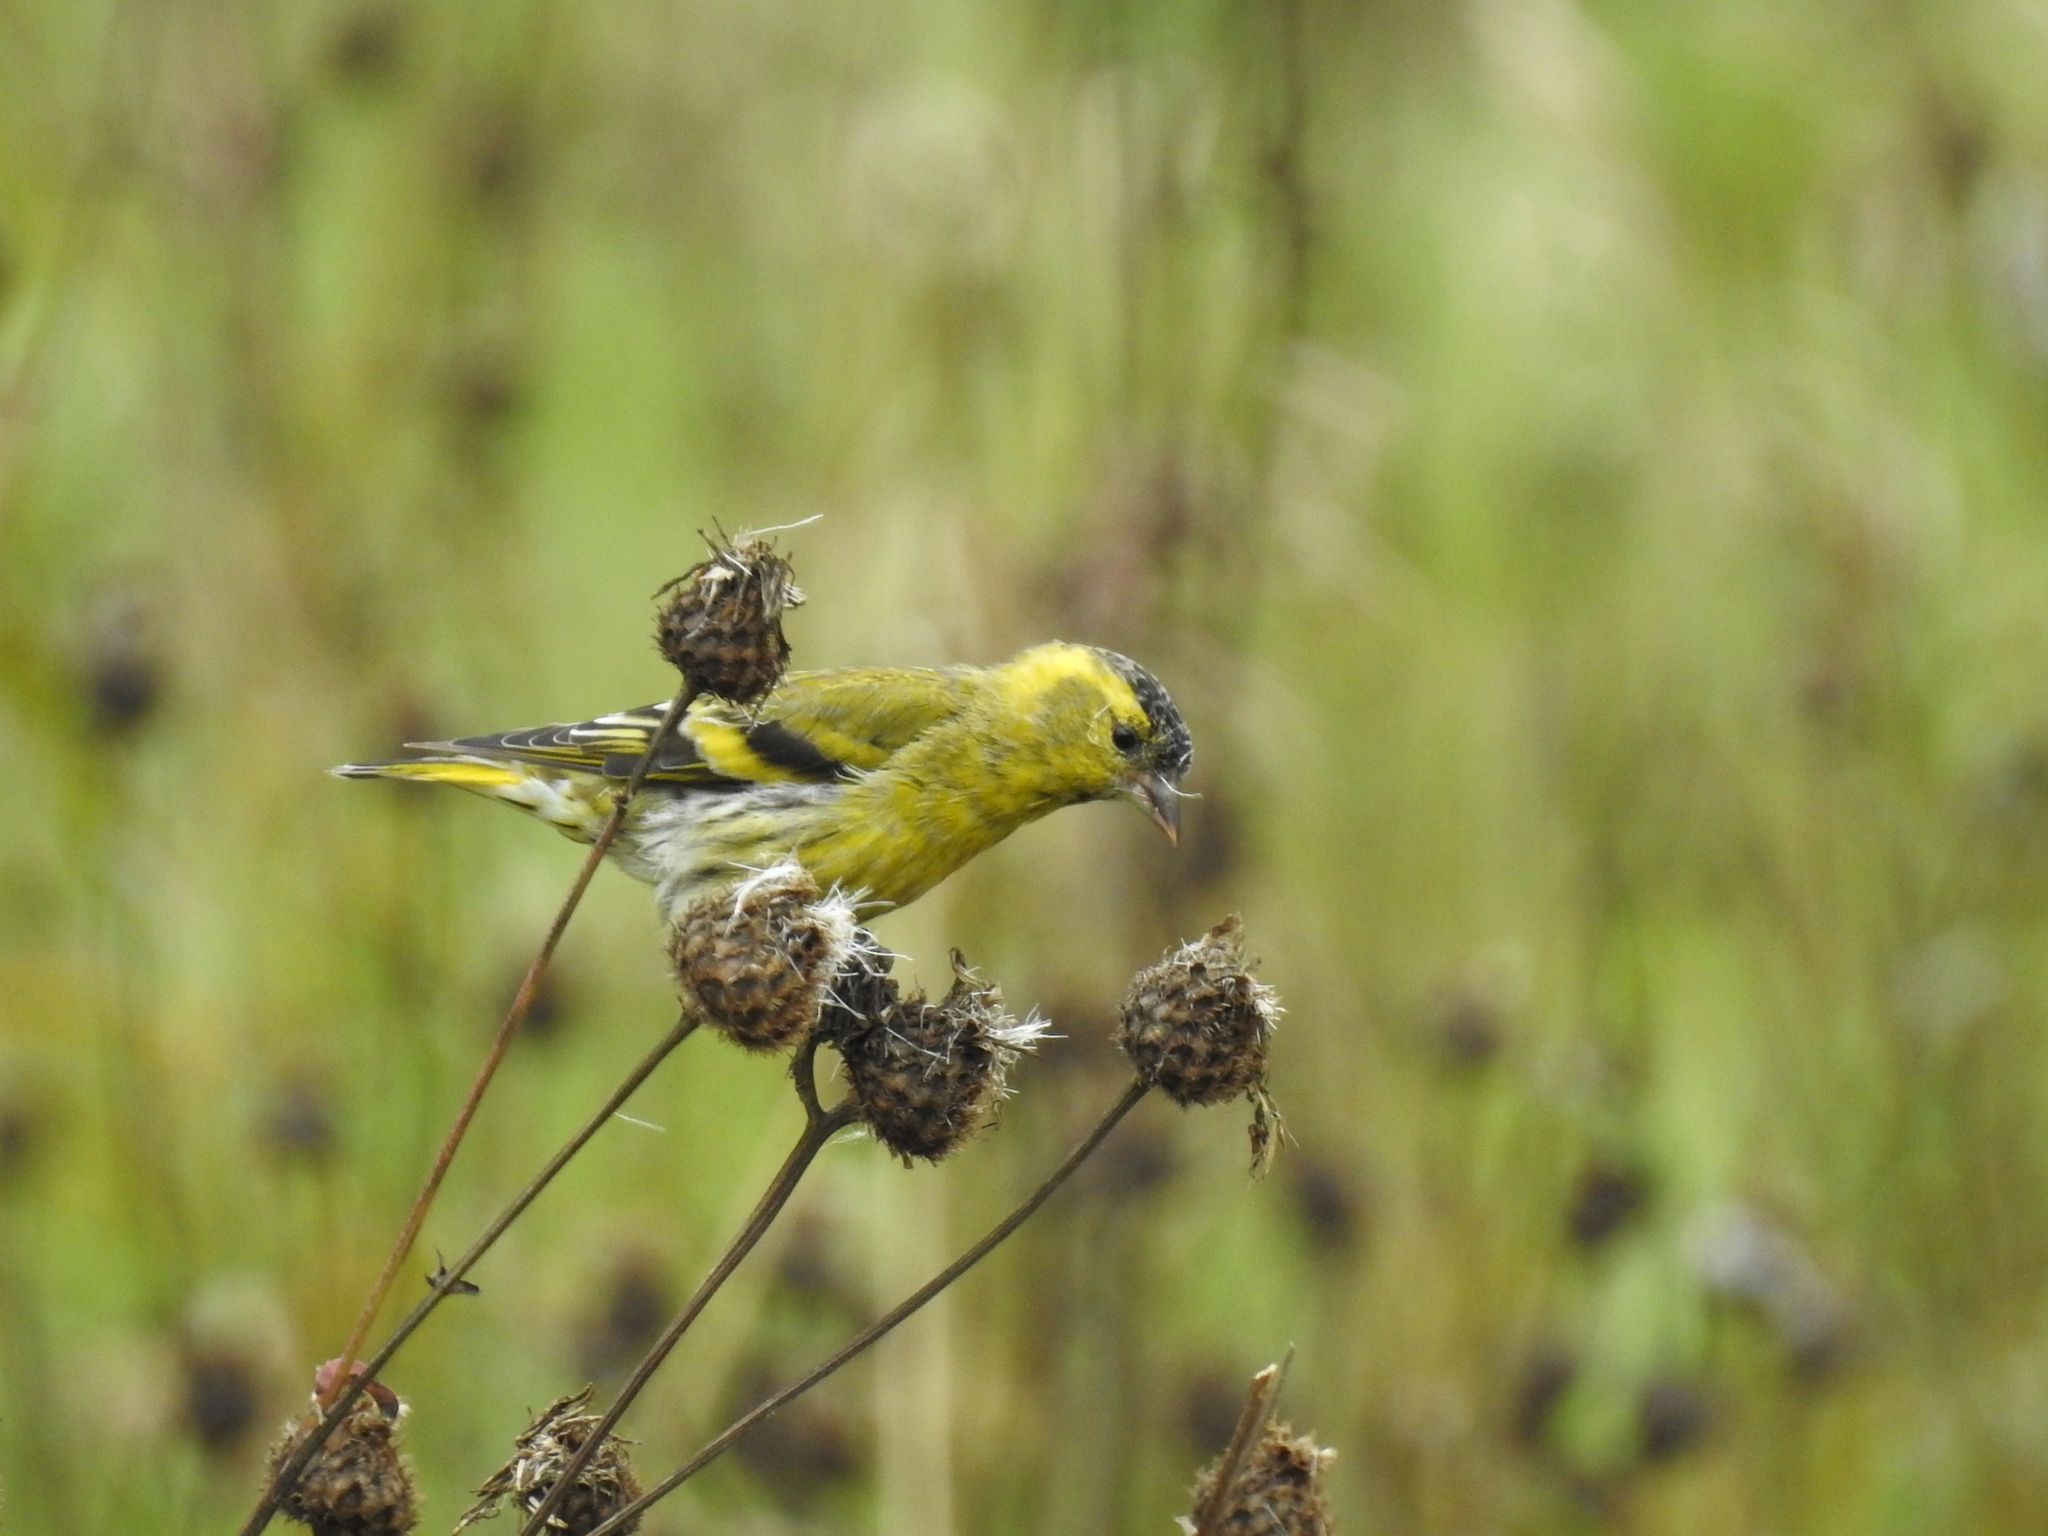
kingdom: Animalia
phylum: Chordata
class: Aves
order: Passeriformes
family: Fringillidae
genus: Spinus
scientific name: Spinus spinus
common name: Eurasian siskin
